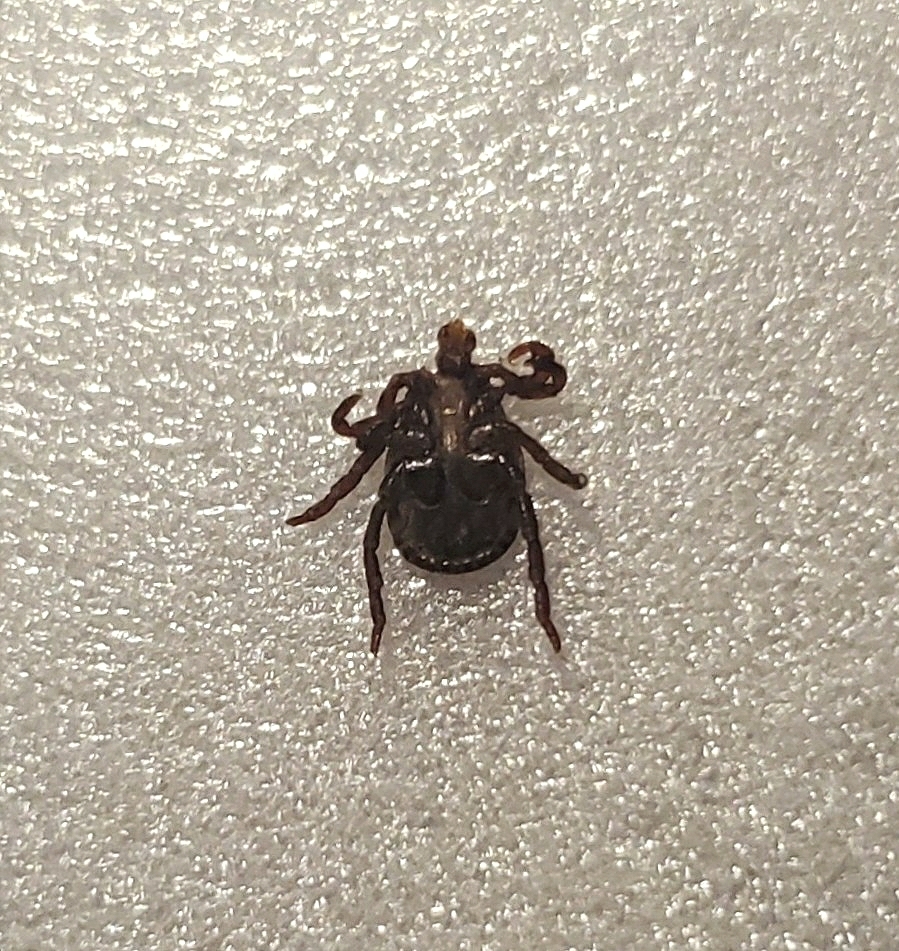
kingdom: Animalia
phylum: Arthropoda
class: Arachnida
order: Ixodida
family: Ixodidae
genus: Dermacentor
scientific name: Dermacentor variabilis
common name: American dog tick
